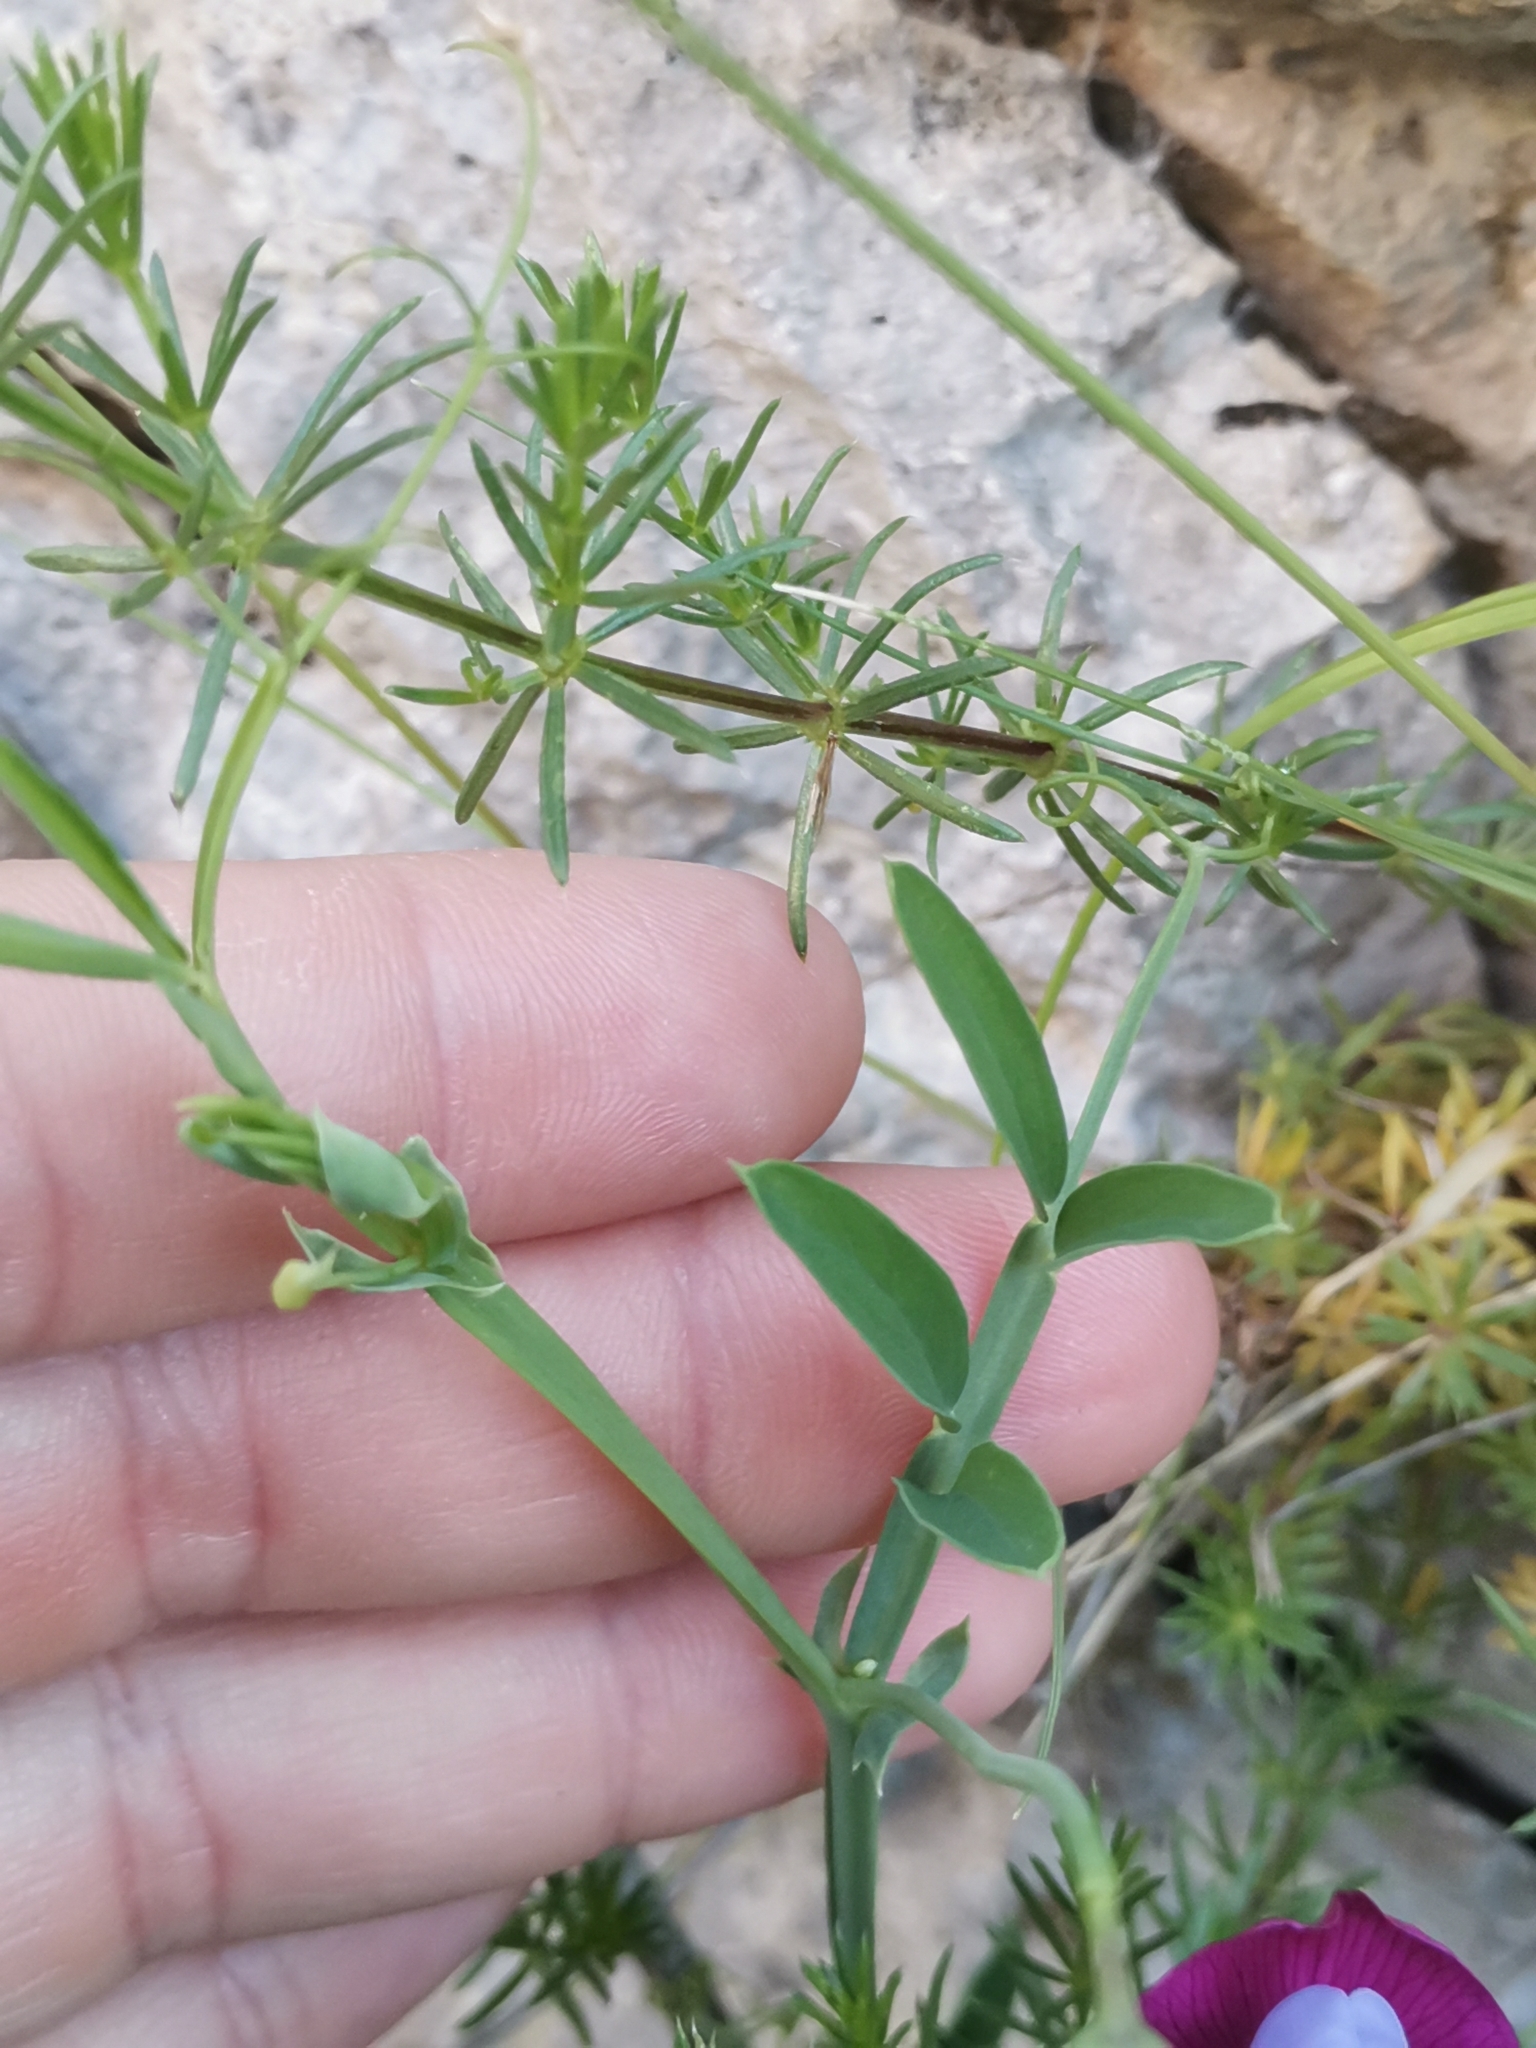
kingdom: Plantae
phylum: Tracheophyta
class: Magnoliopsida
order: Fabales
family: Fabaceae
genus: Lathyrus
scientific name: Lathyrus clymenum
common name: Spanish vetchling
